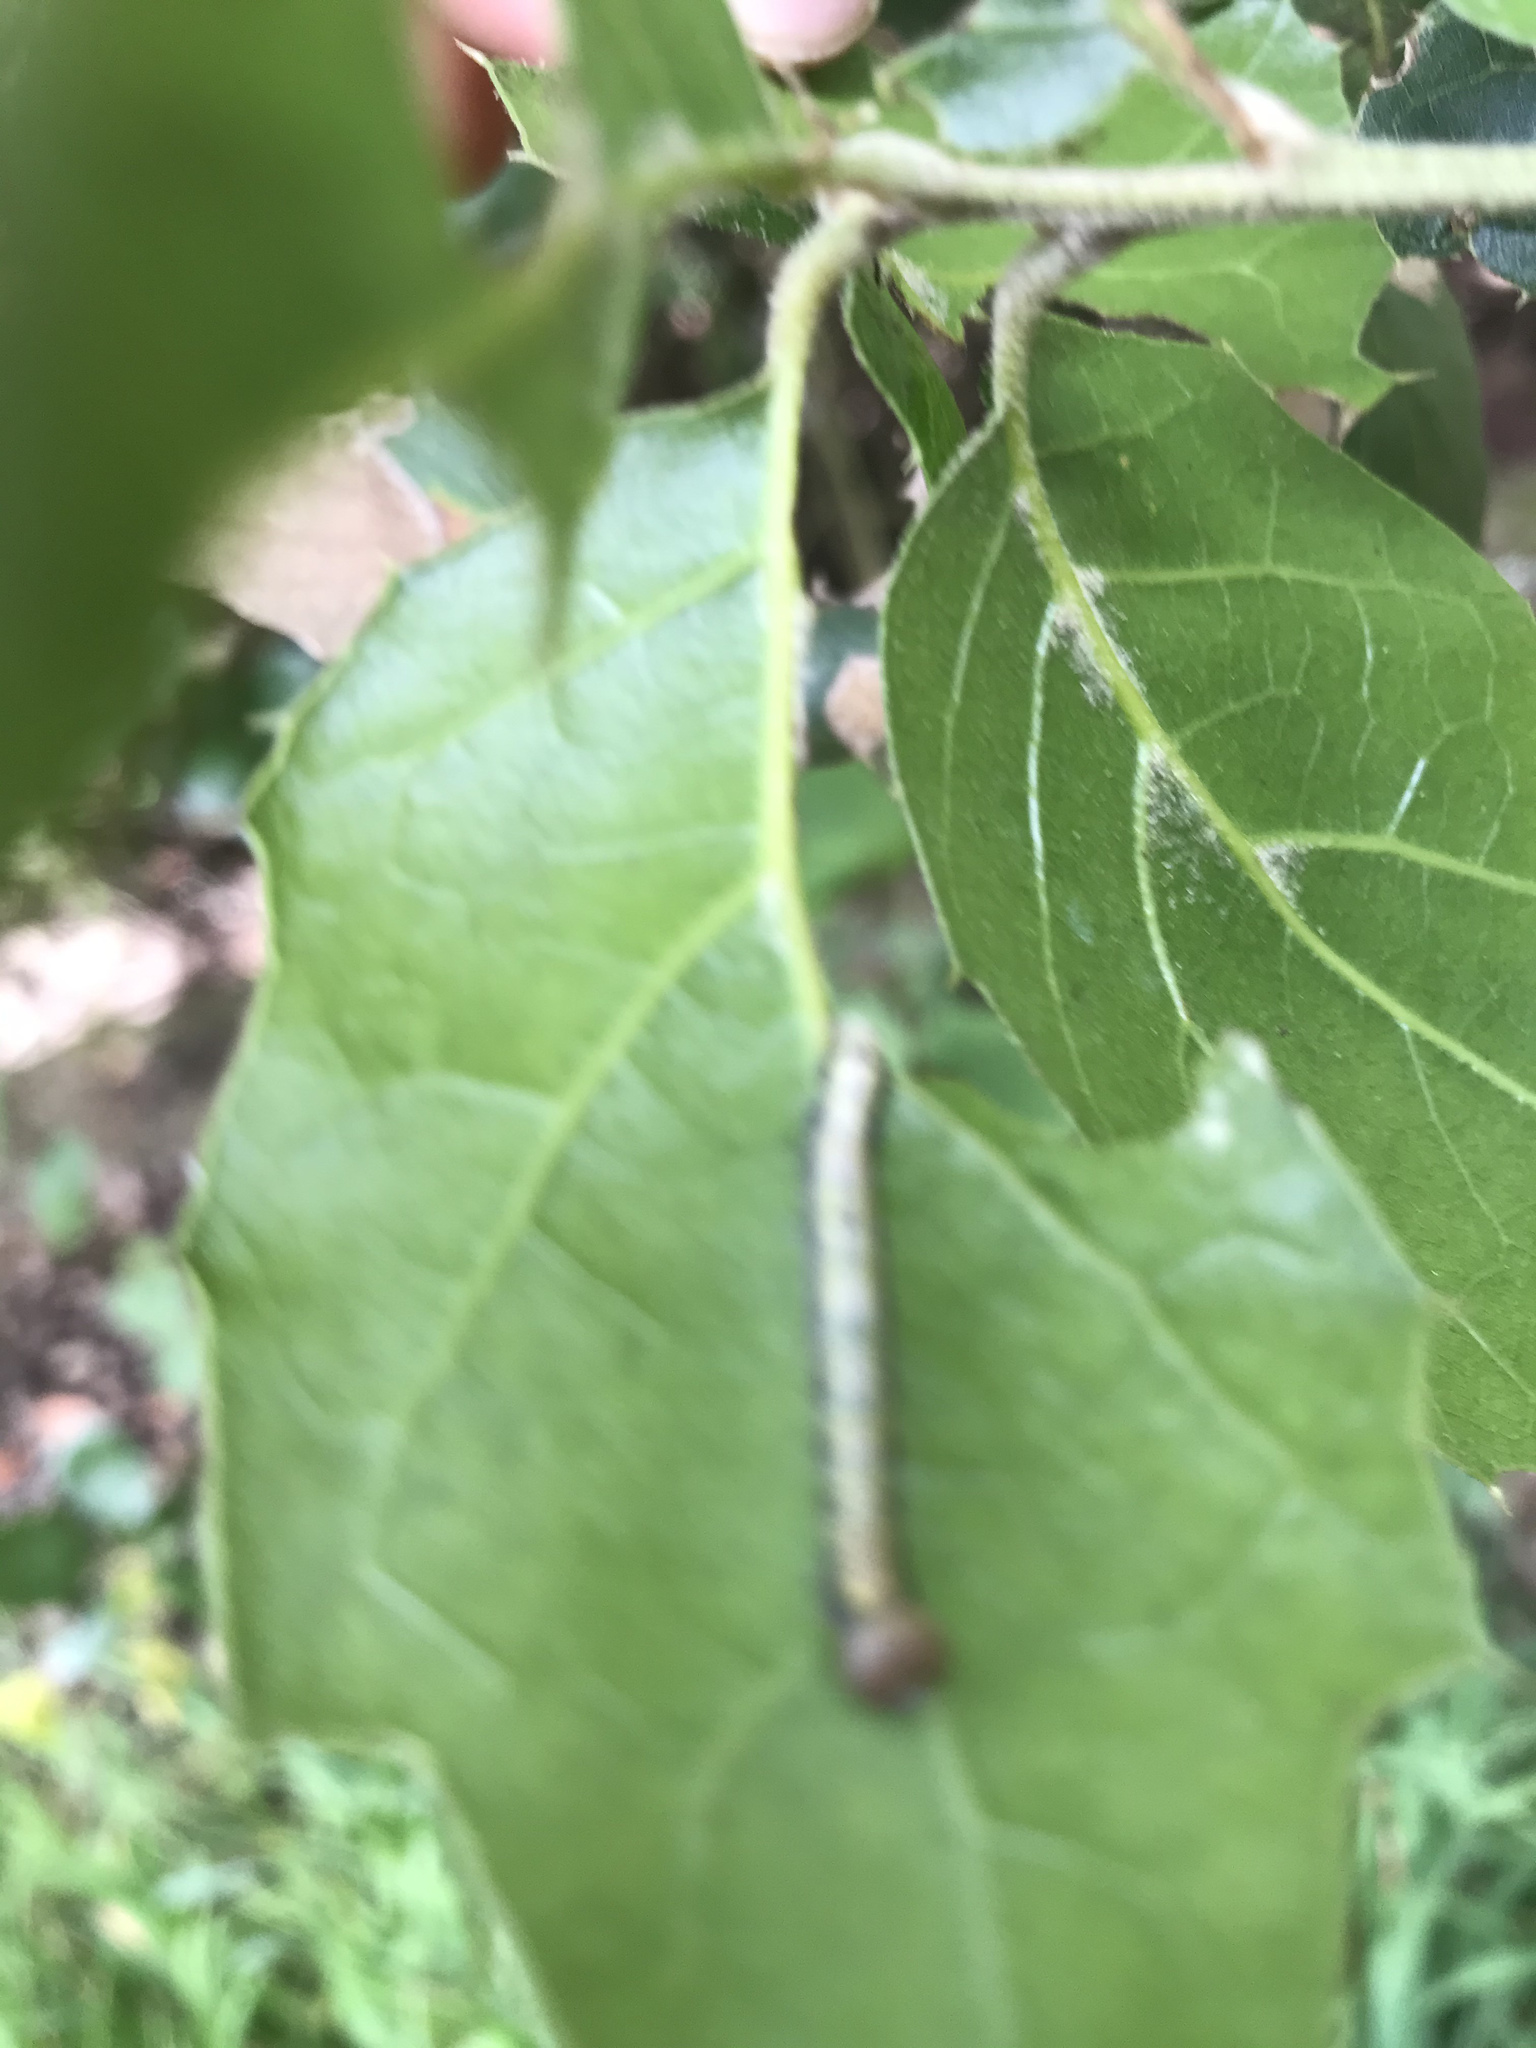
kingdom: Animalia
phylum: Arthropoda
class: Insecta
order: Lepidoptera
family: Notodontidae
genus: Phryganidia
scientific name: Phryganidia californica
